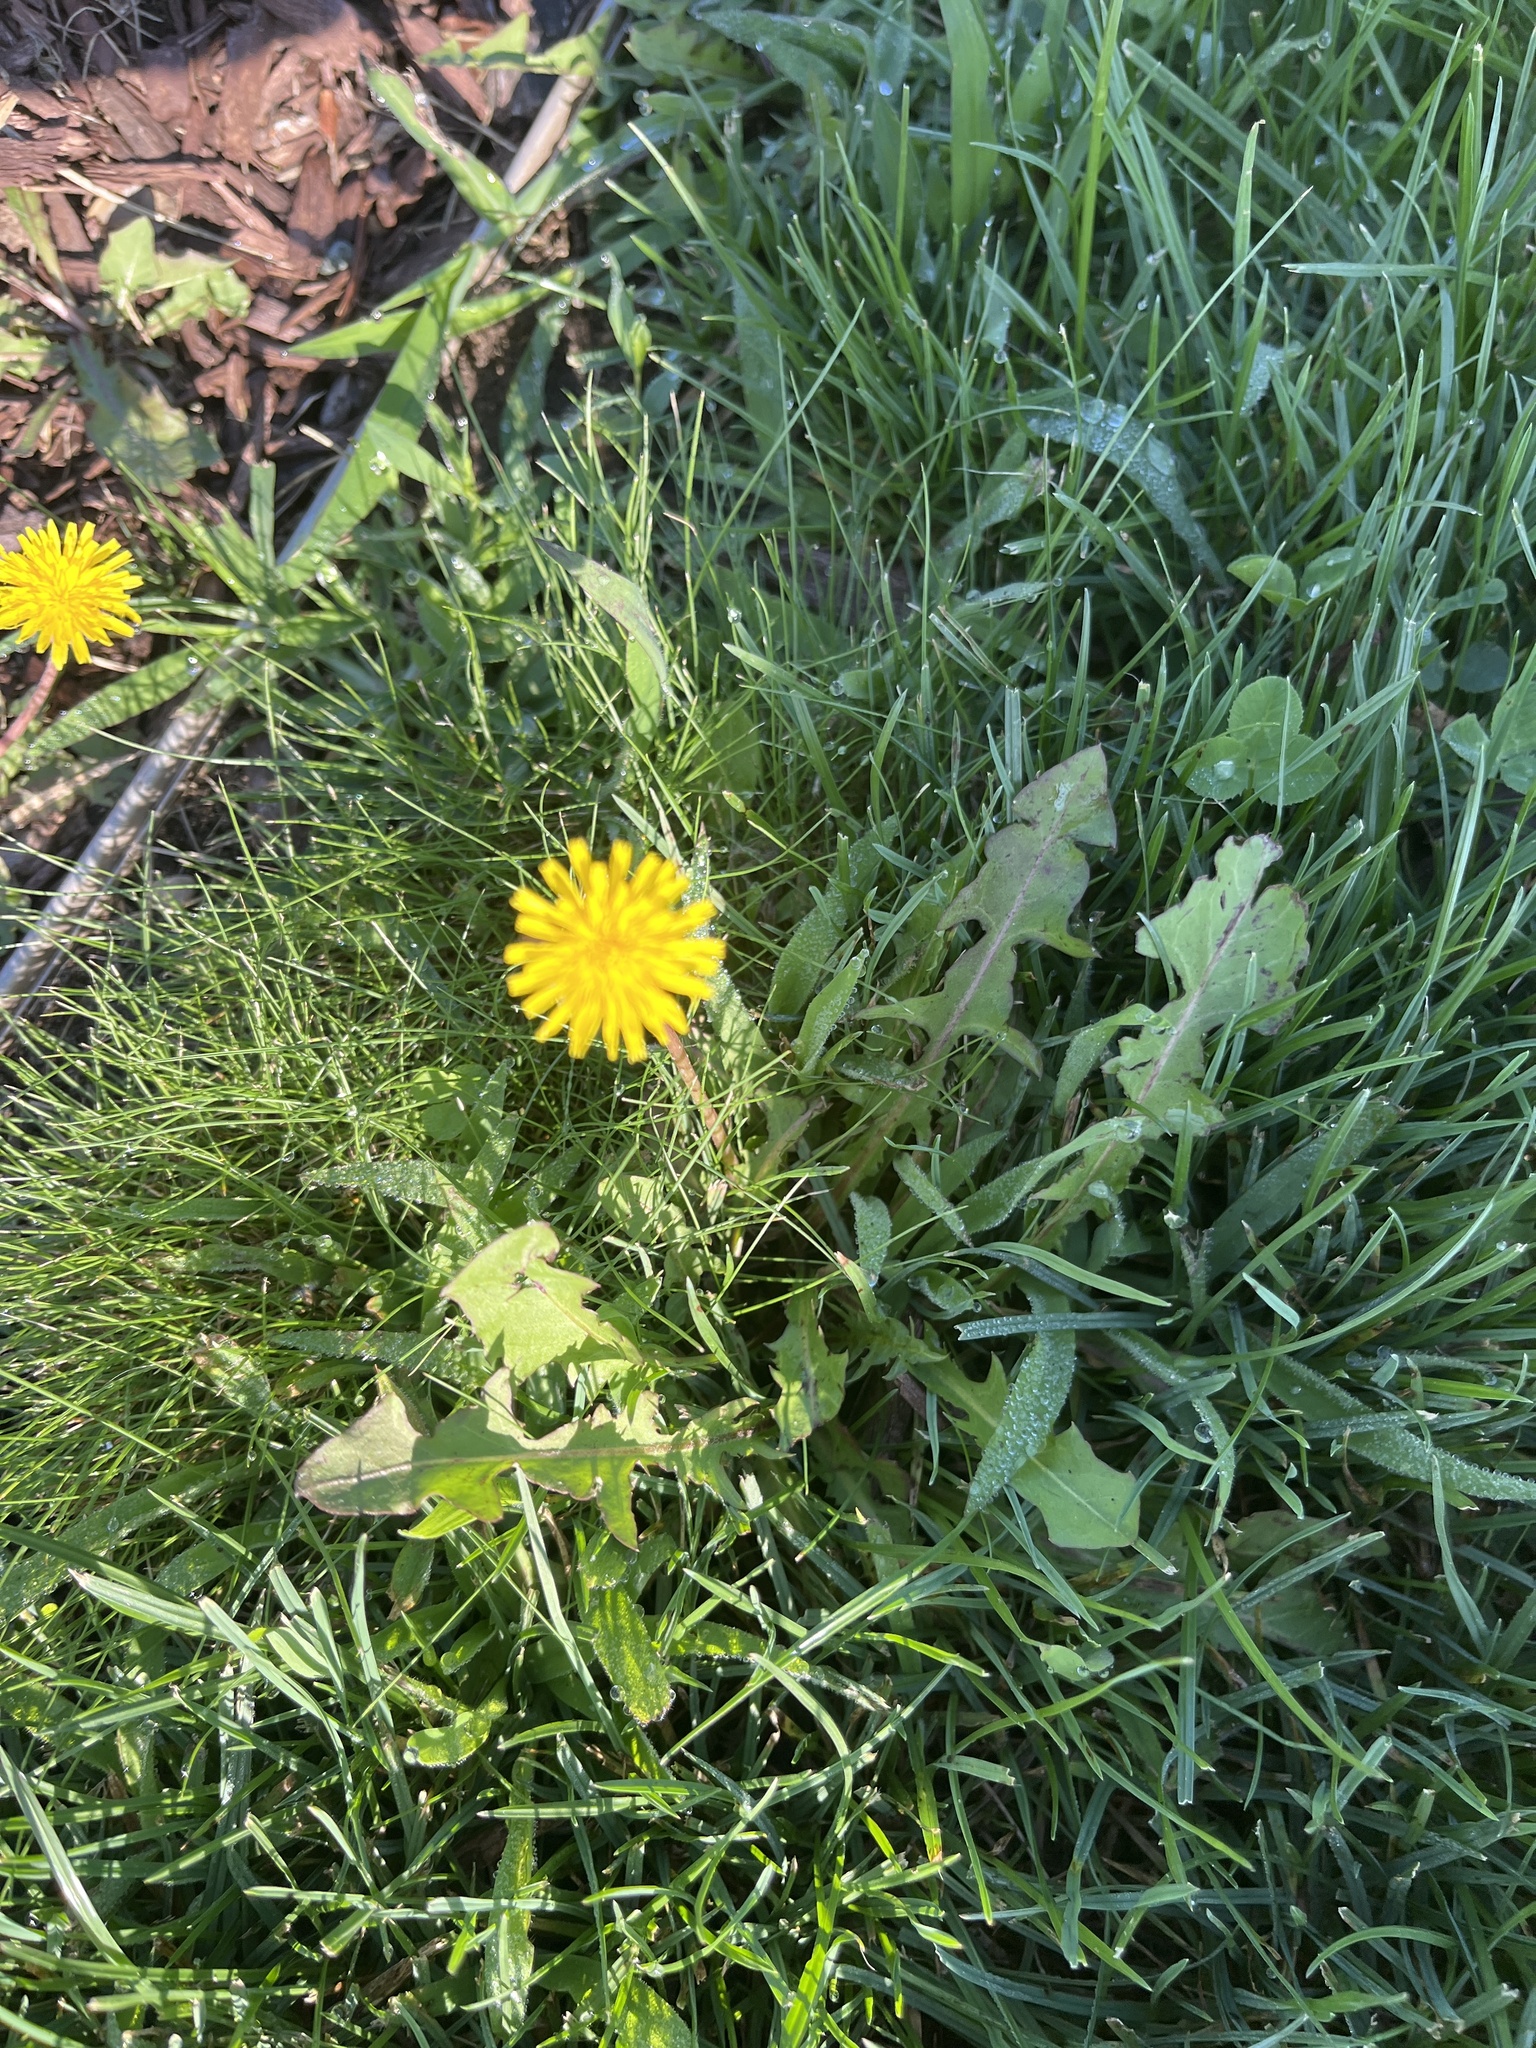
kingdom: Plantae
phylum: Tracheophyta
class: Magnoliopsida
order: Asterales
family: Asteraceae
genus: Taraxacum
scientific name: Taraxacum
